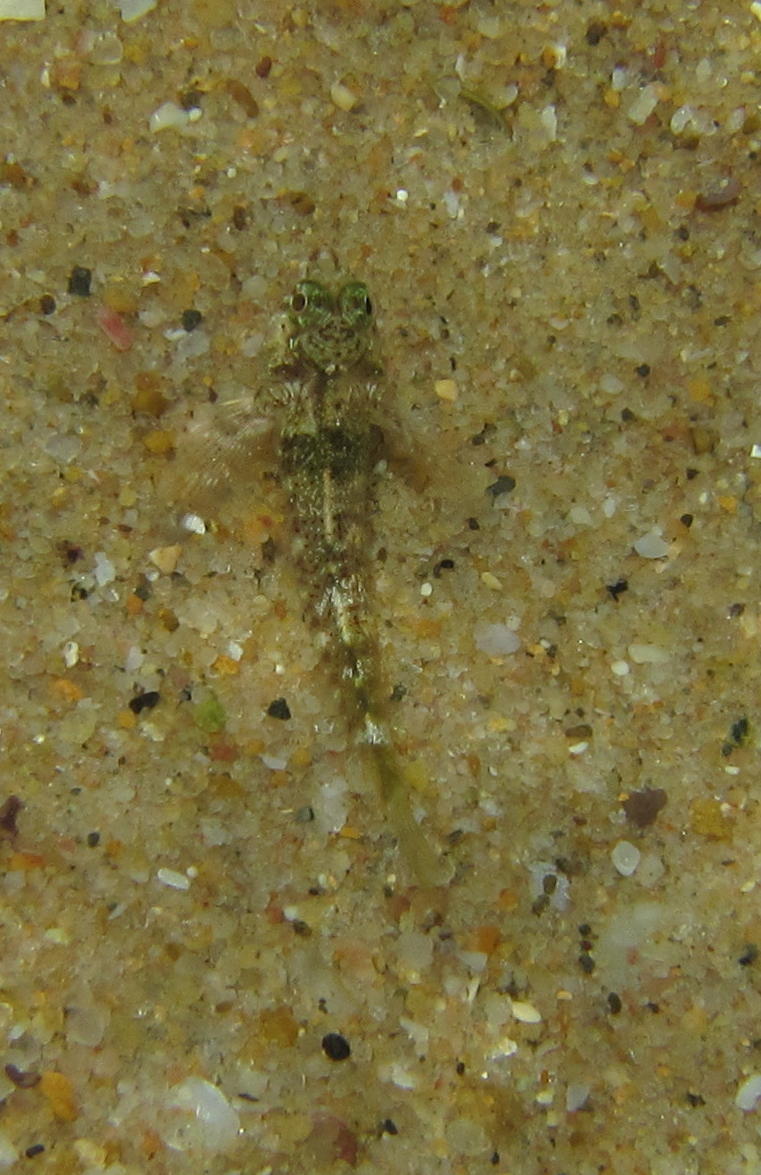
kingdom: Animalia
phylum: Chordata
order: Perciformes
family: Tripterygiidae
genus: Helcogramma
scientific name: Helcogramma rharhabe
